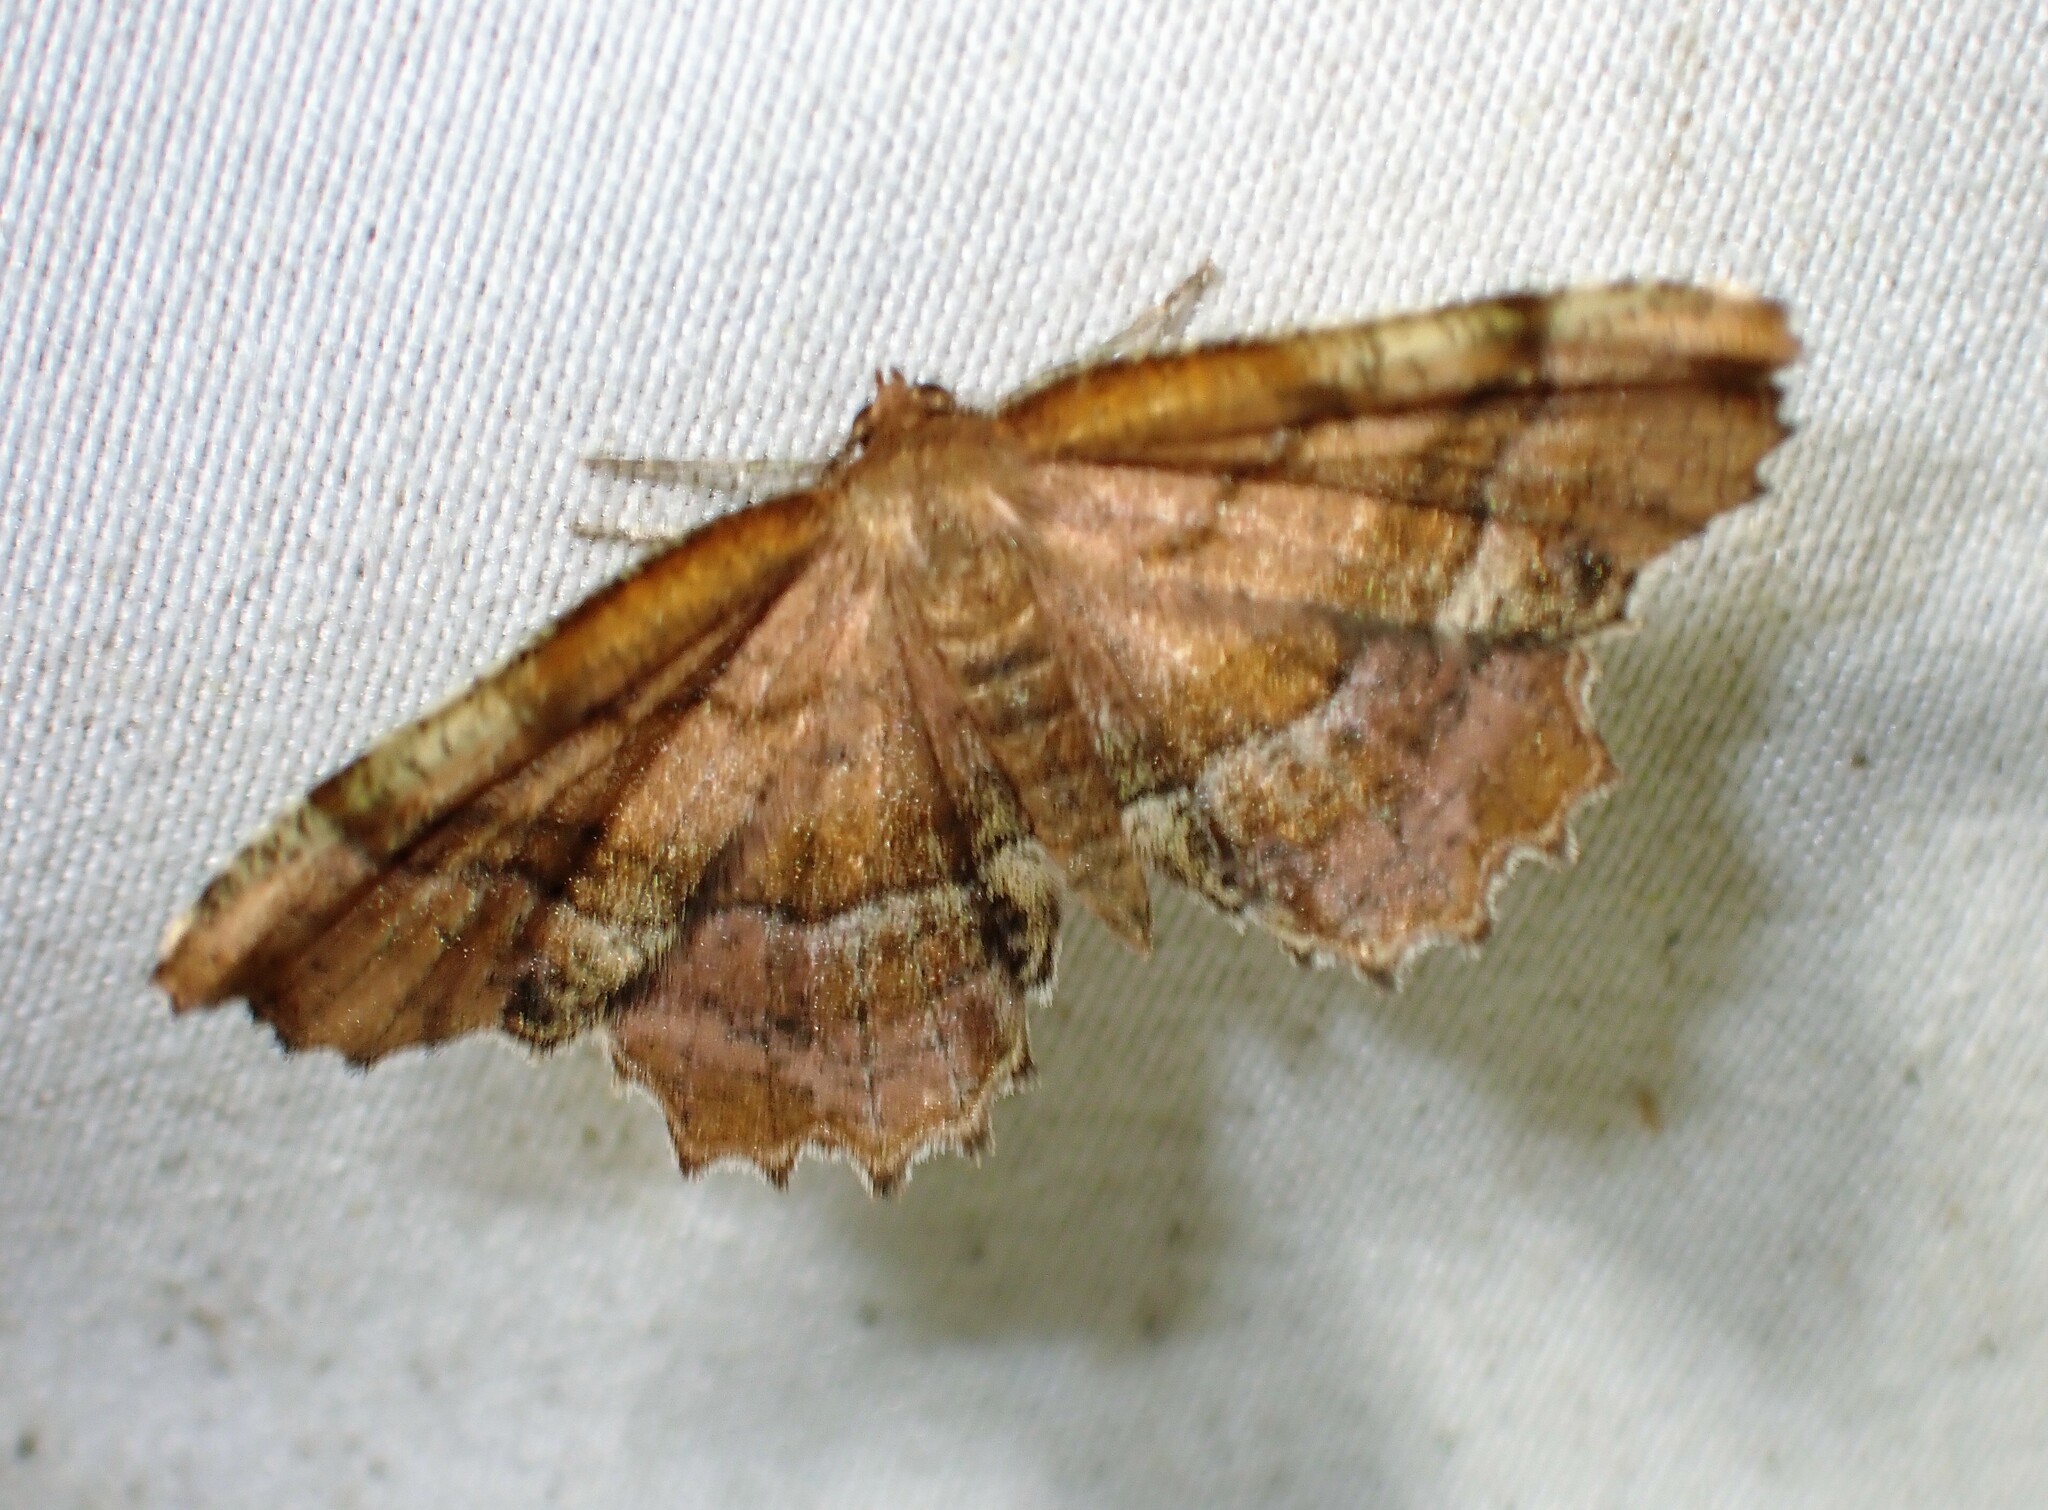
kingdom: Animalia
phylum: Arthropoda
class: Insecta
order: Lepidoptera
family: Geometridae
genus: Cepphis
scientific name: Cepphis armataria
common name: Scallop moth
